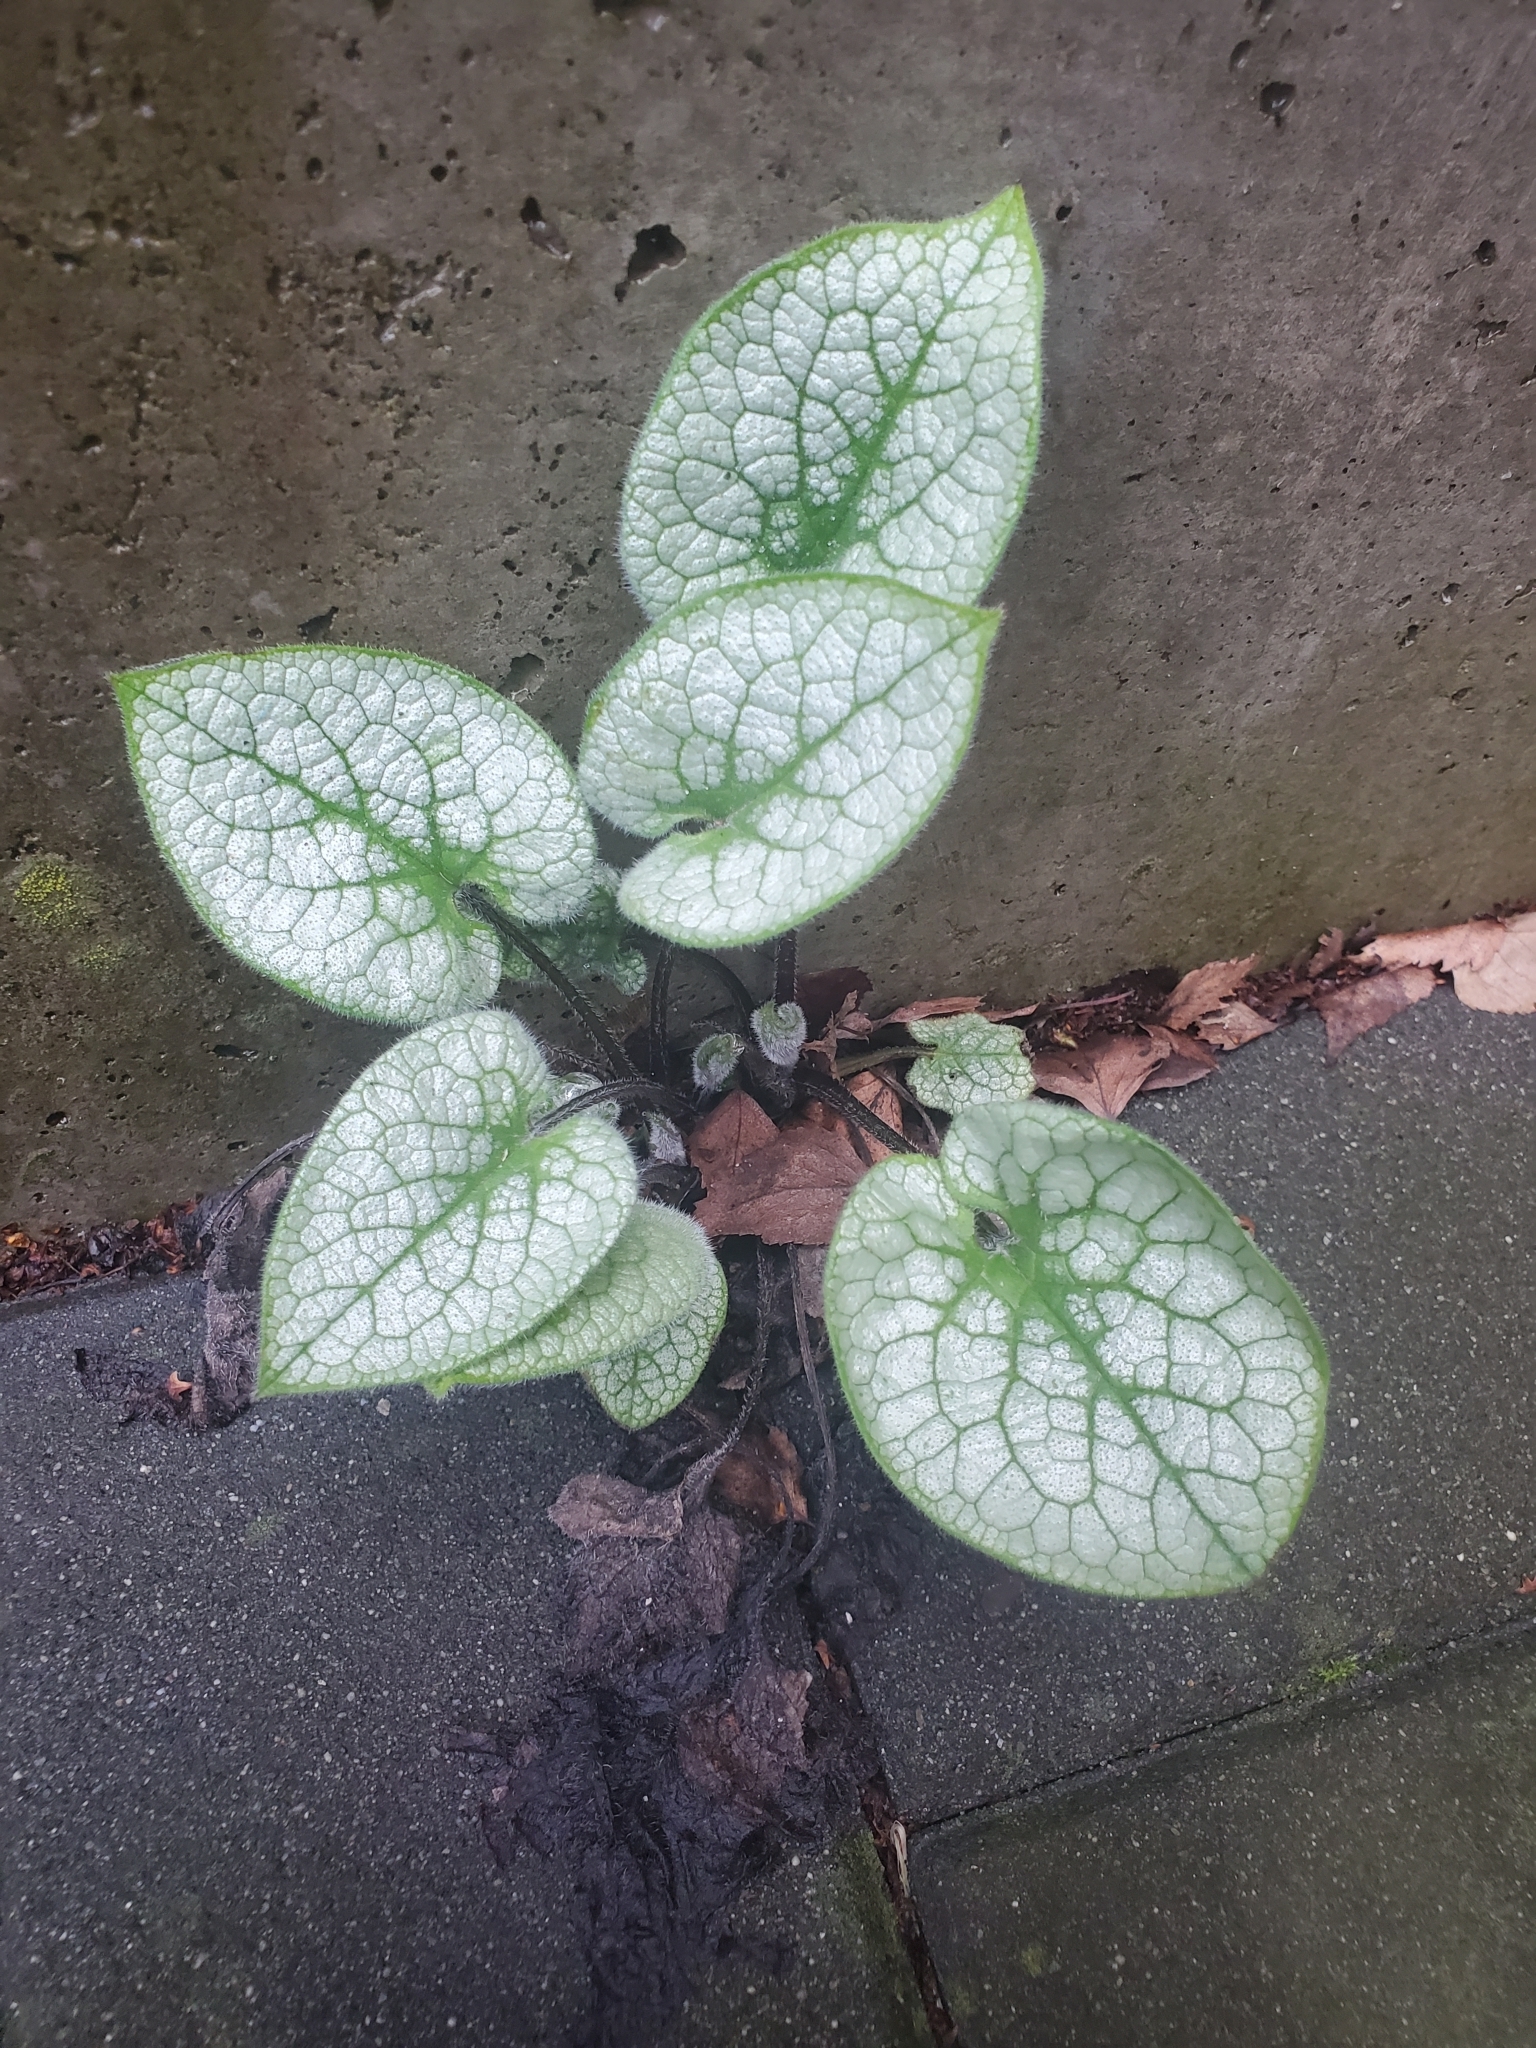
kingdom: Plantae
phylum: Tracheophyta
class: Magnoliopsida
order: Boraginales
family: Boraginaceae
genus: Brunnera
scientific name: Brunnera macrophylla
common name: Great forget-me-not
